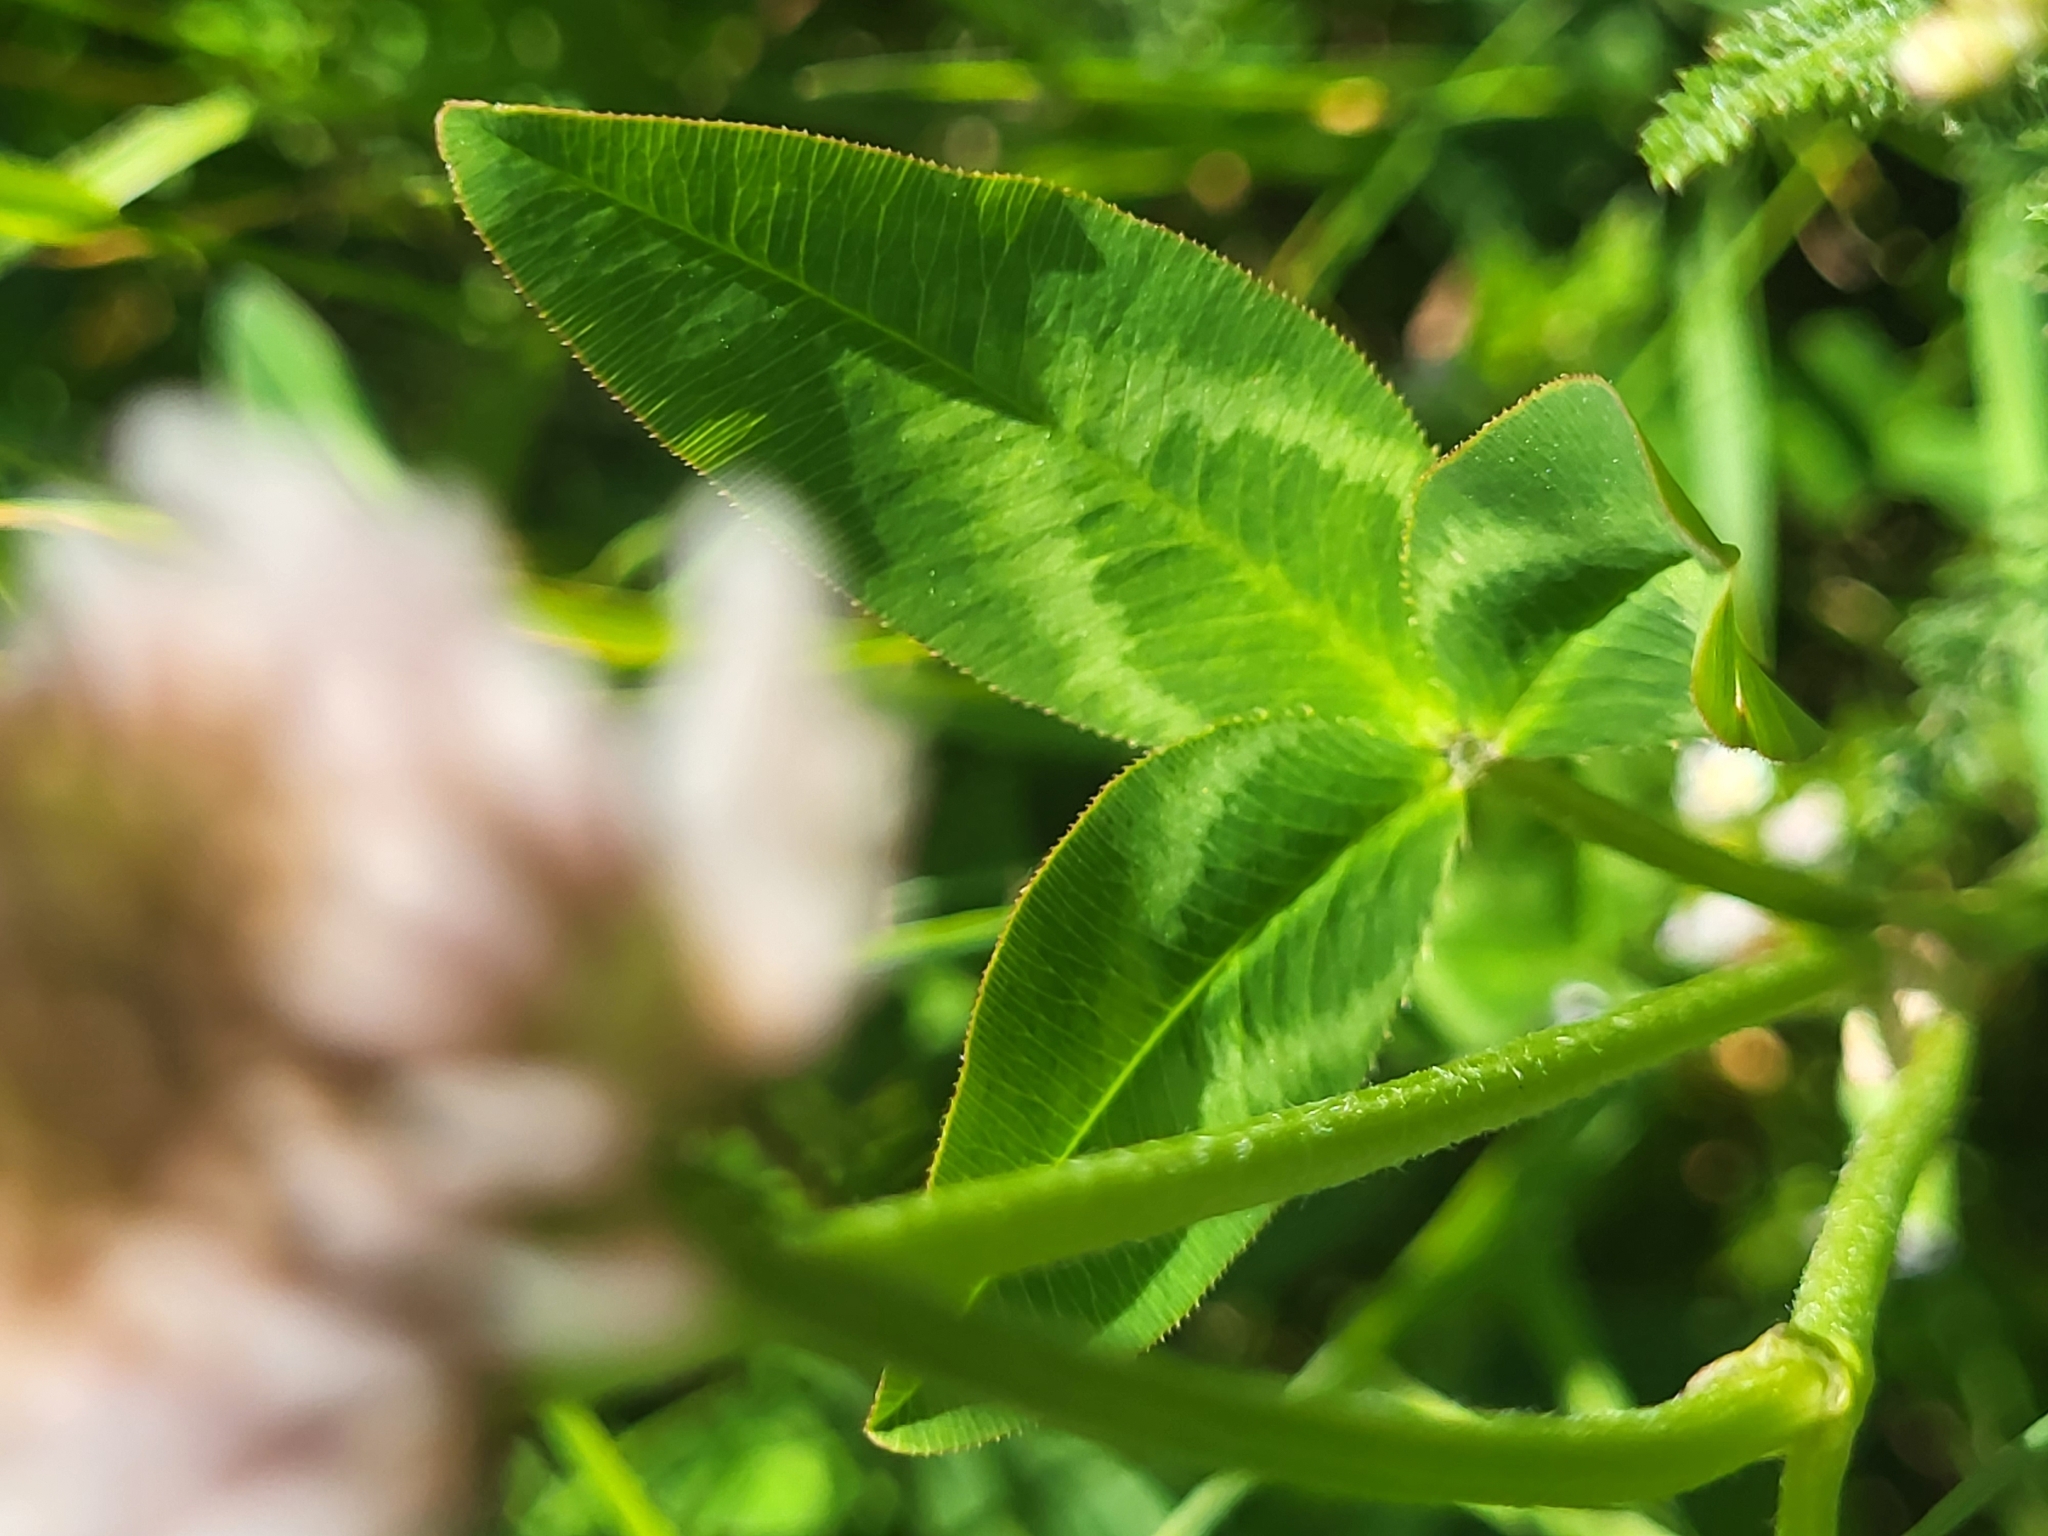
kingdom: Plantae
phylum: Tracheophyta
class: Magnoliopsida
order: Fabales
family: Fabaceae
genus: Trifolium
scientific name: Trifolium ambiguum
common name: Kura clover
